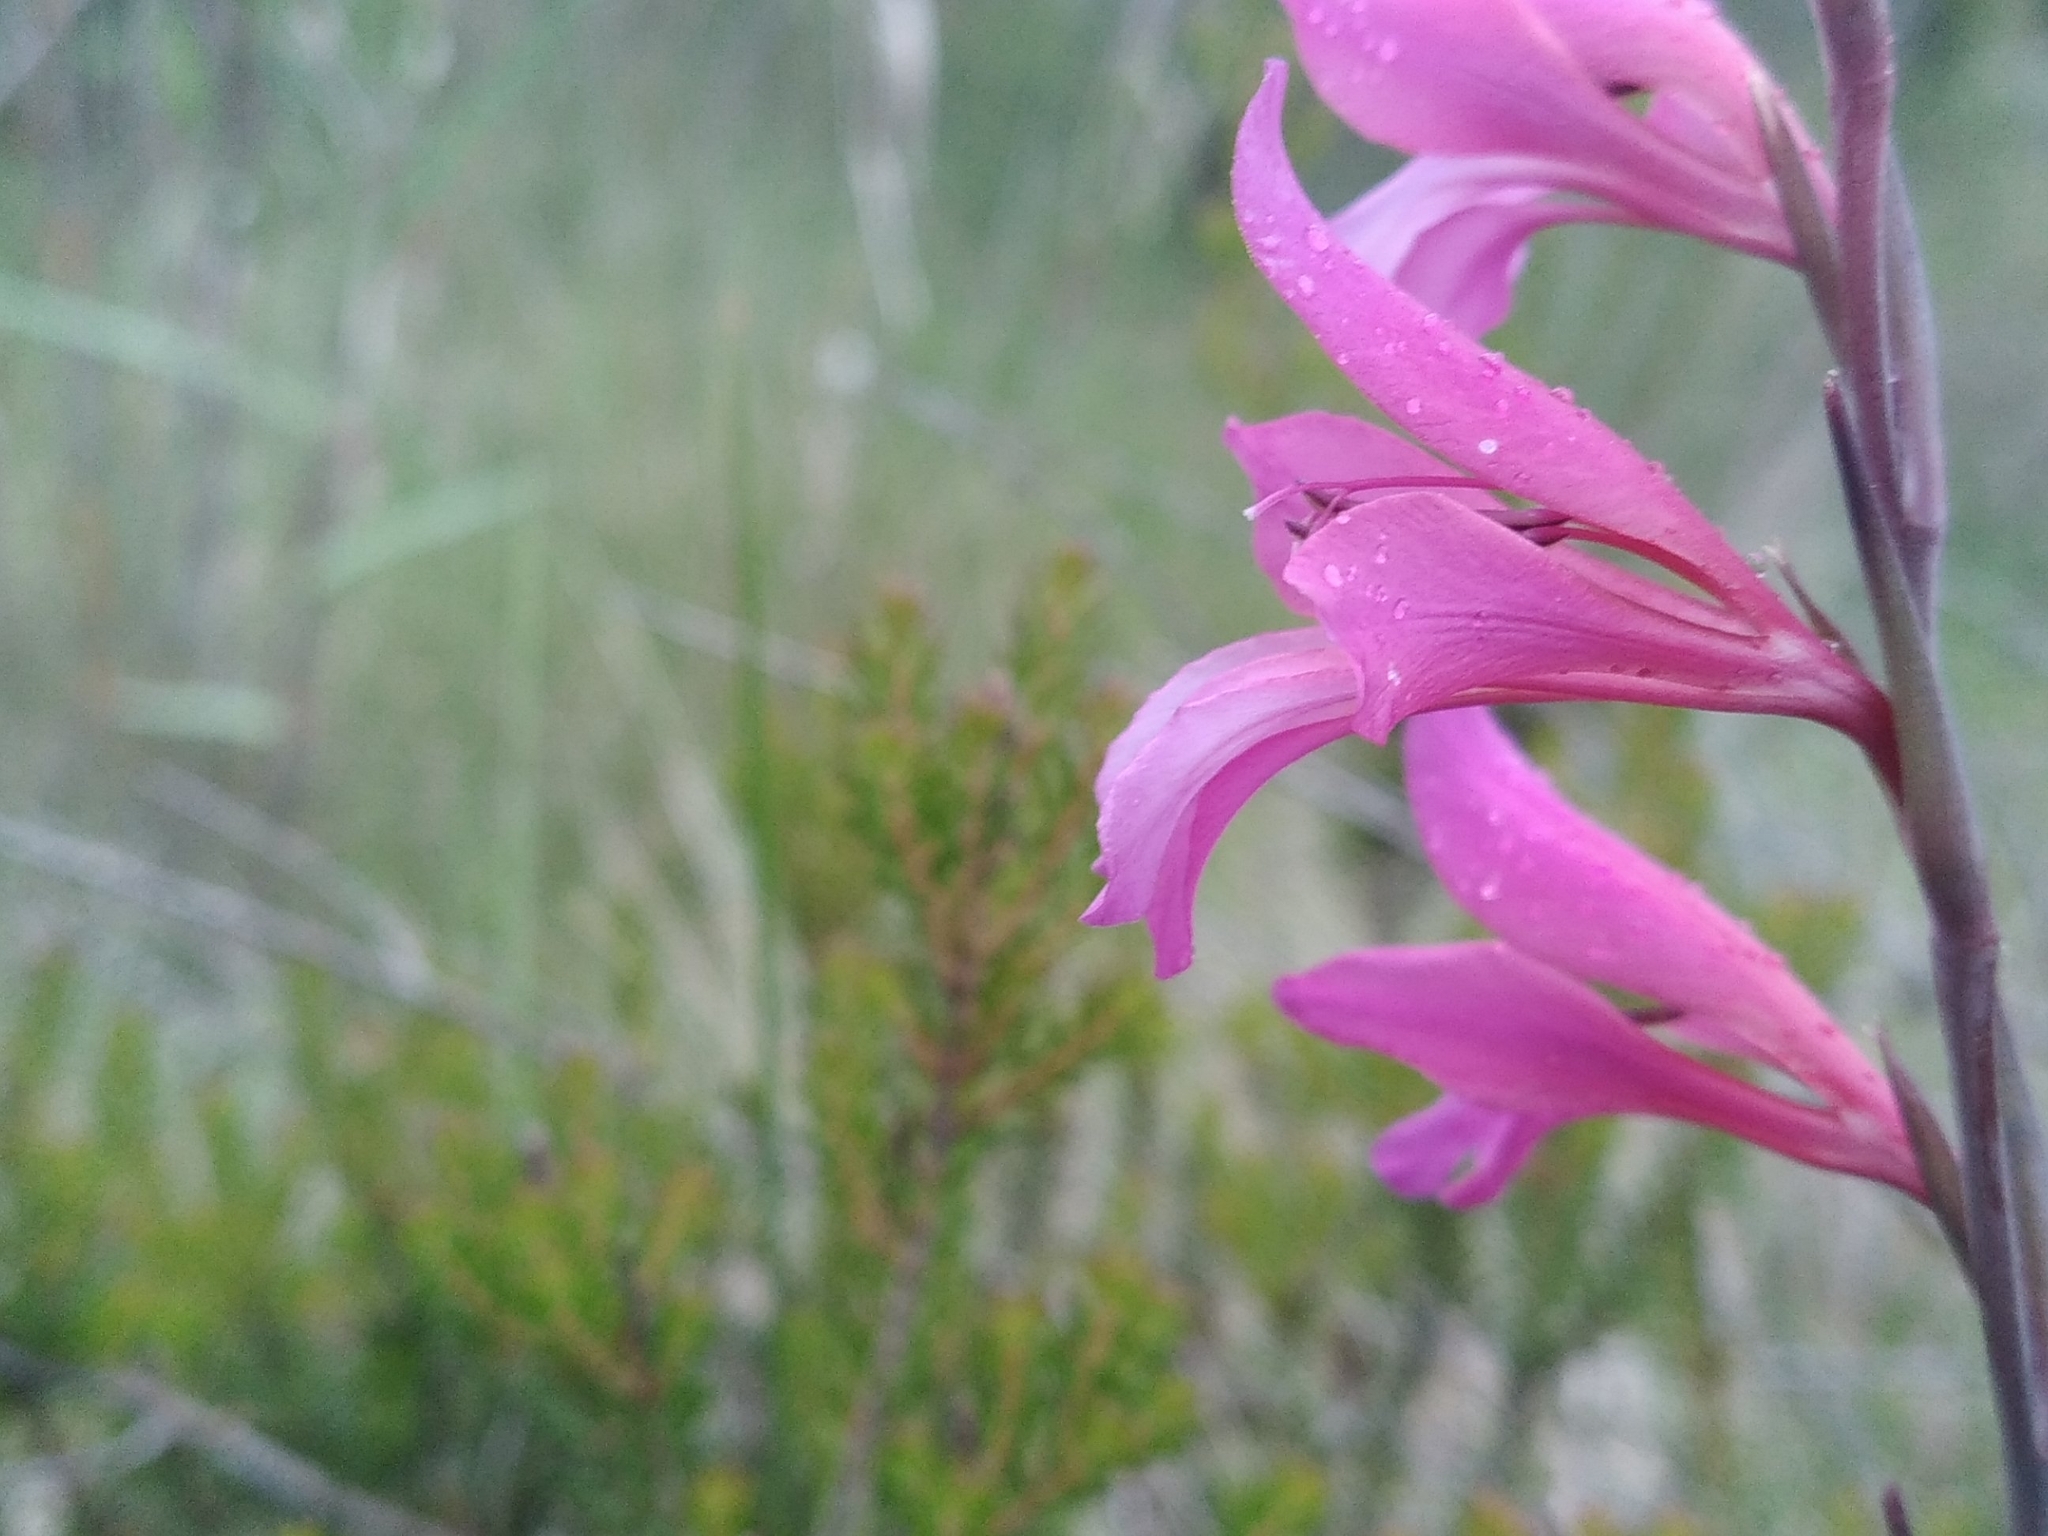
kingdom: Plantae
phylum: Tracheophyta
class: Liliopsida
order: Asparagales
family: Iridaceae
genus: Gladiolus
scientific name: Gladiolus dubius
